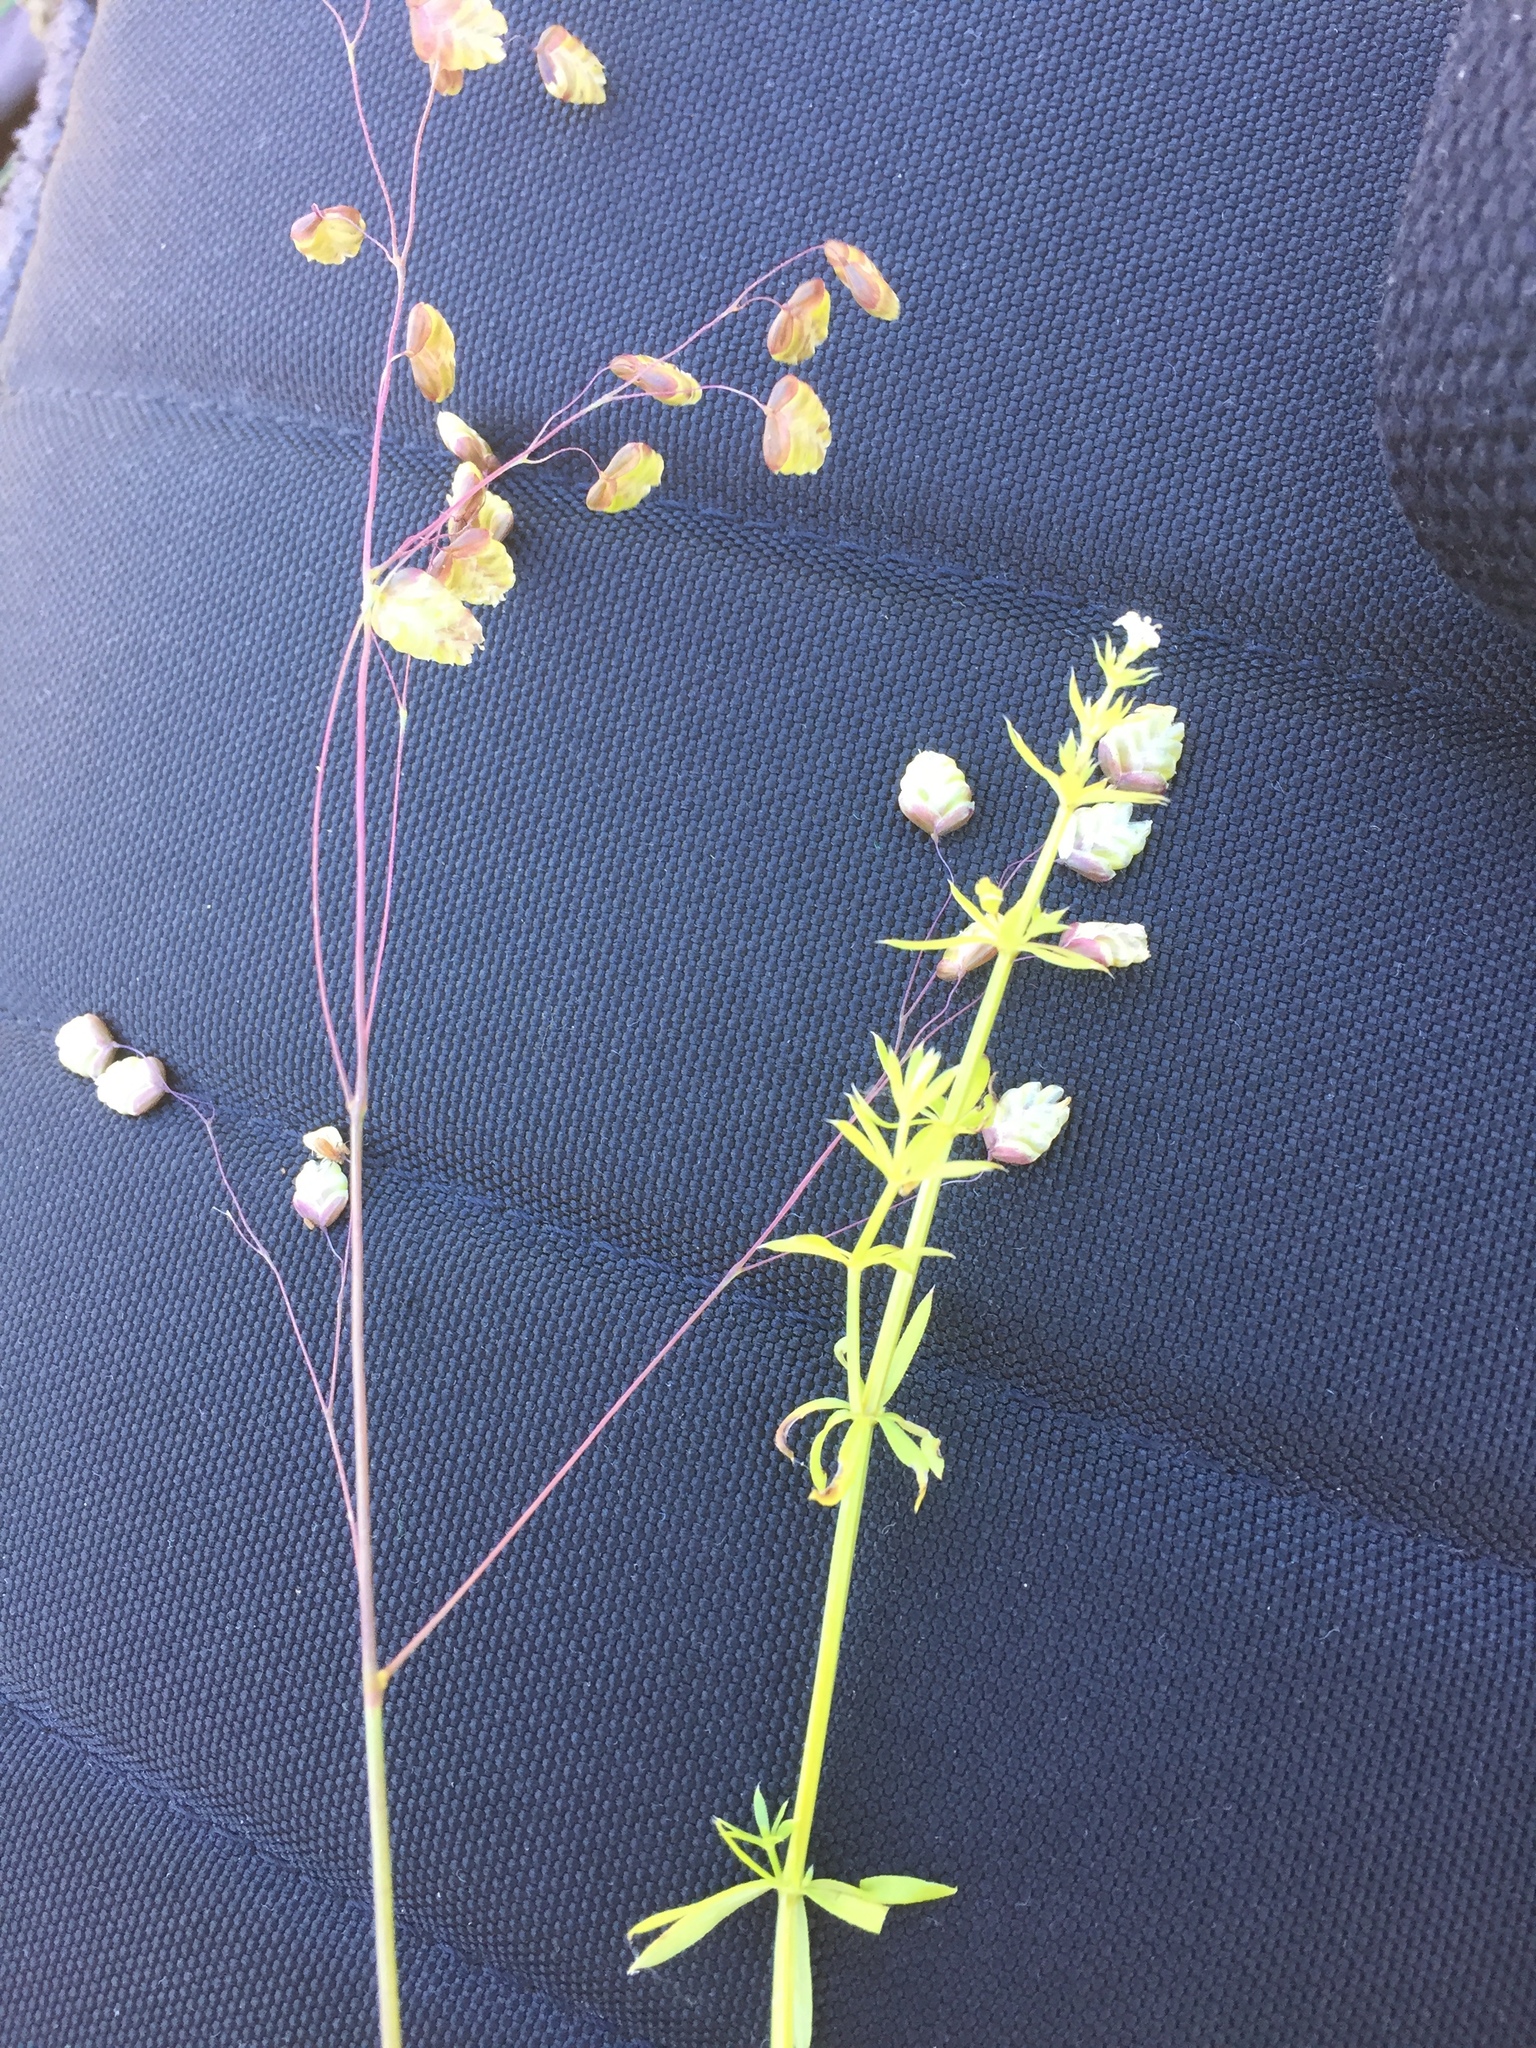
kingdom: Plantae
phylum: Tracheophyta
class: Liliopsida
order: Poales
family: Poaceae
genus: Briza
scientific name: Briza media
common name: Quaking grass
